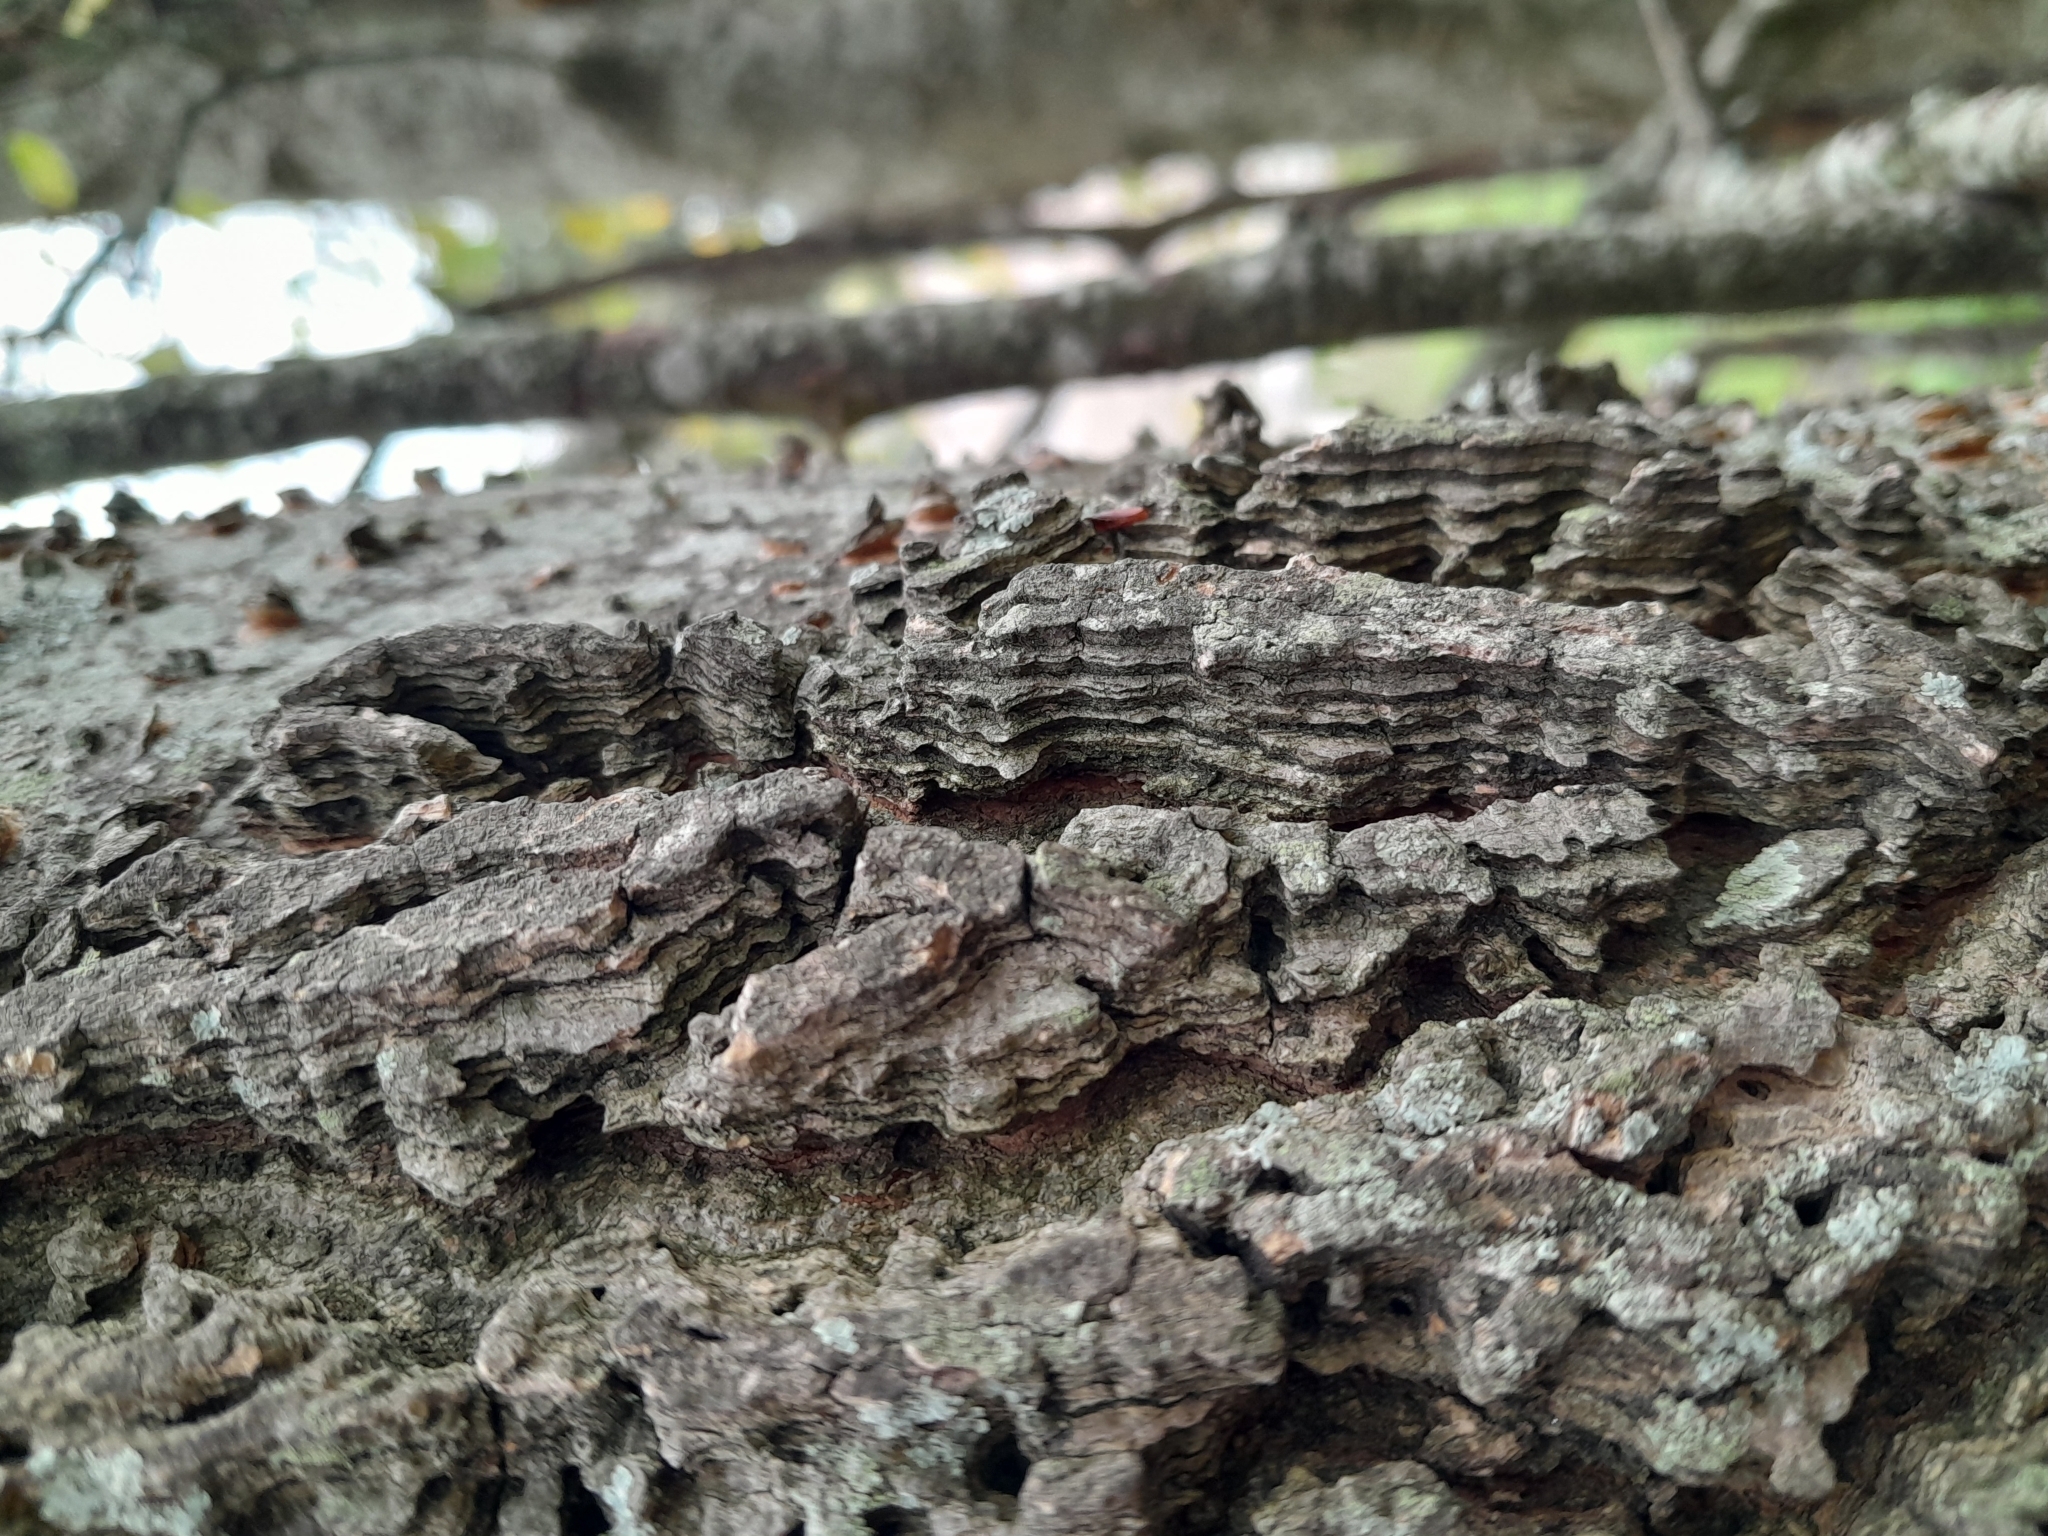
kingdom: Plantae
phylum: Tracheophyta
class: Magnoliopsida
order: Rosales
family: Cannabaceae
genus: Celtis
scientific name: Celtis laevigata
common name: Sugarberry
